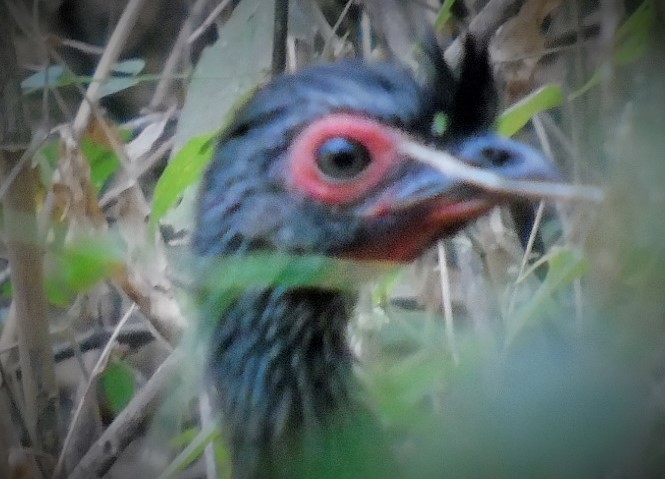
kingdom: Animalia
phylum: Chordata
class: Aves
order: Galliformes
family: Cracidae
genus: Ortalis
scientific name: Ortalis wagleri
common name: Rufous-bellied chachalaca
